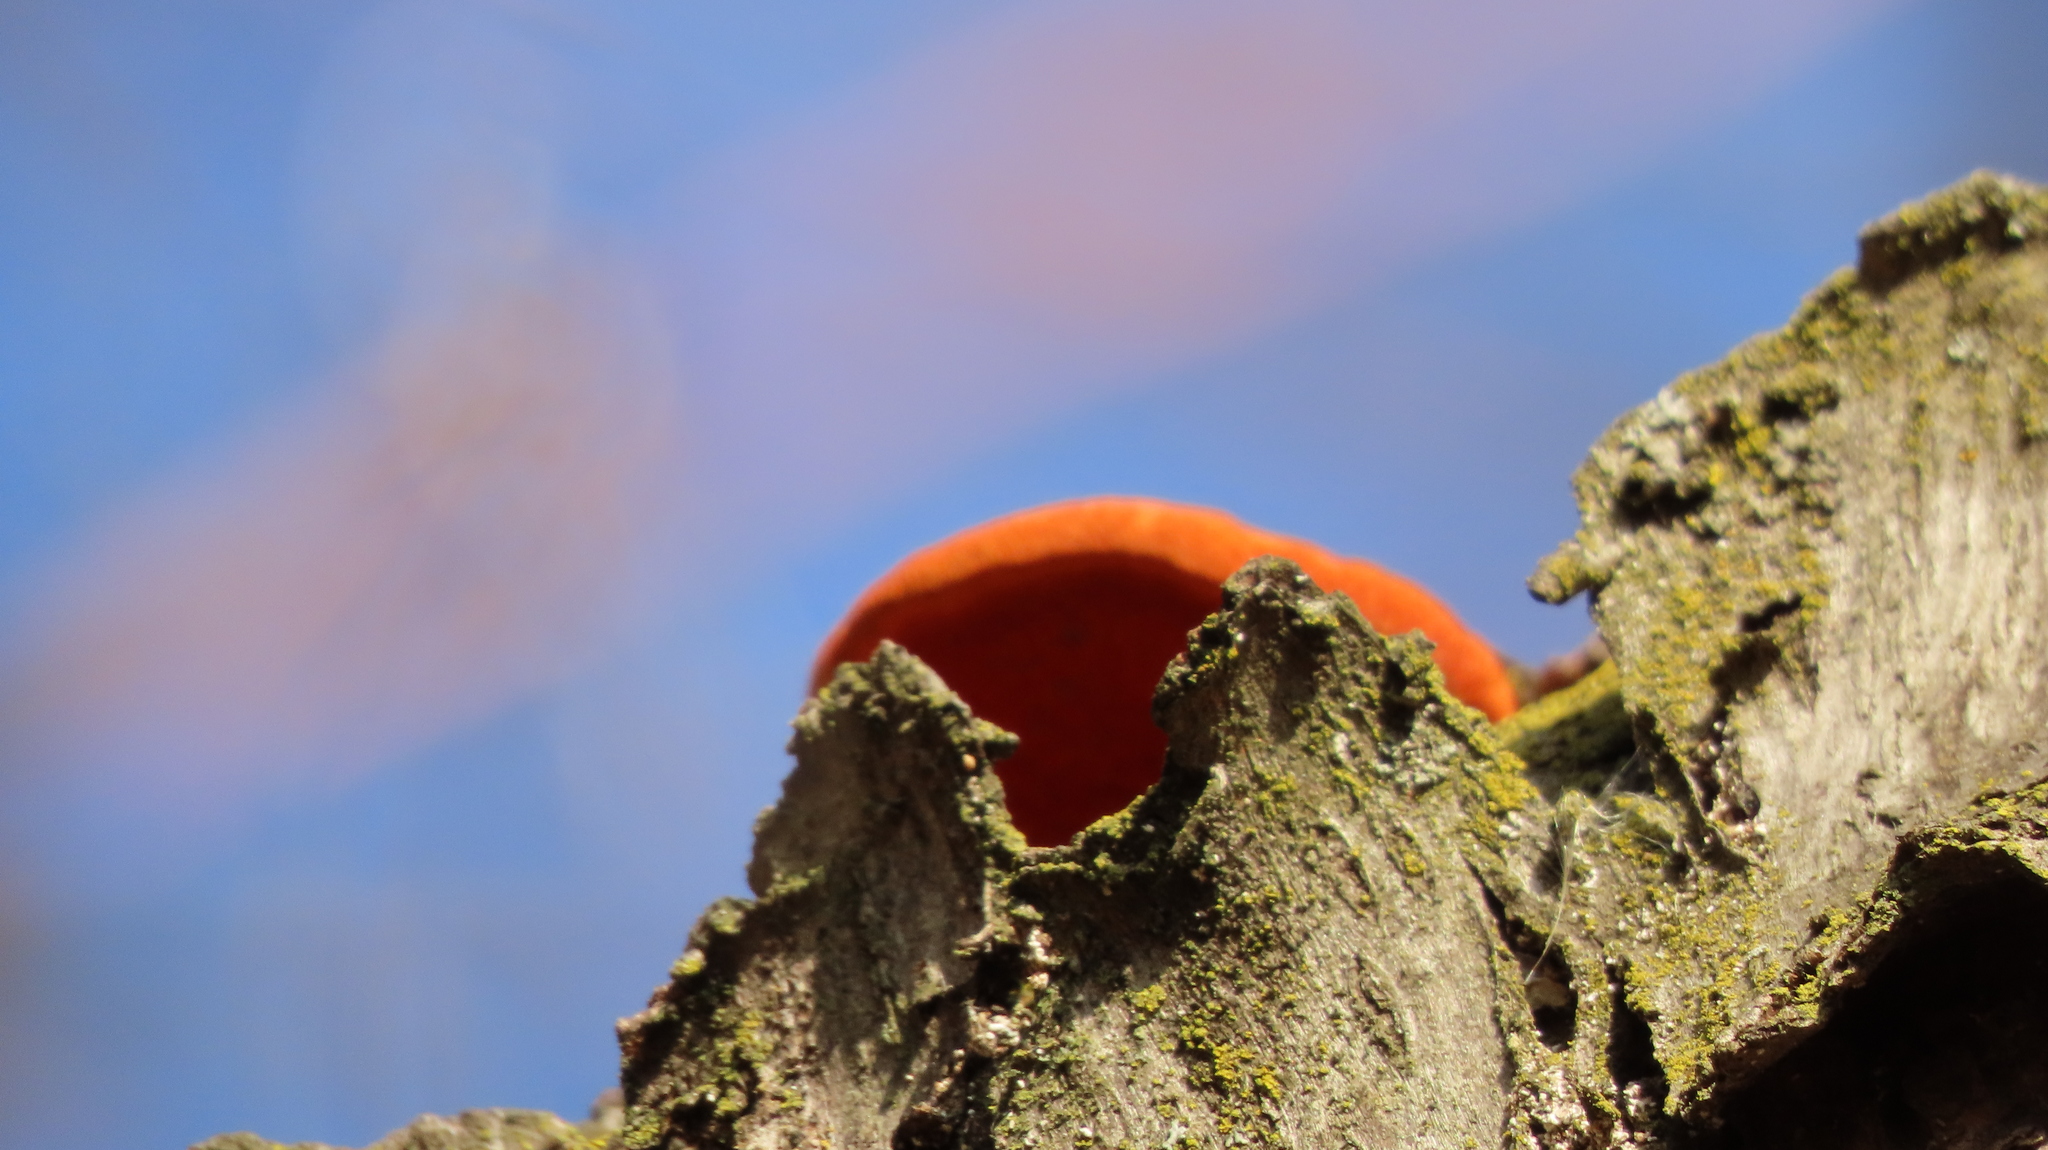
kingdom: Fungi
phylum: Basidiomycota
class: Agaricomycetes
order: Polyporales
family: Polyporaceae
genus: Trametes
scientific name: Trametes cinnabarina
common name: Northern cinnabar polypore
